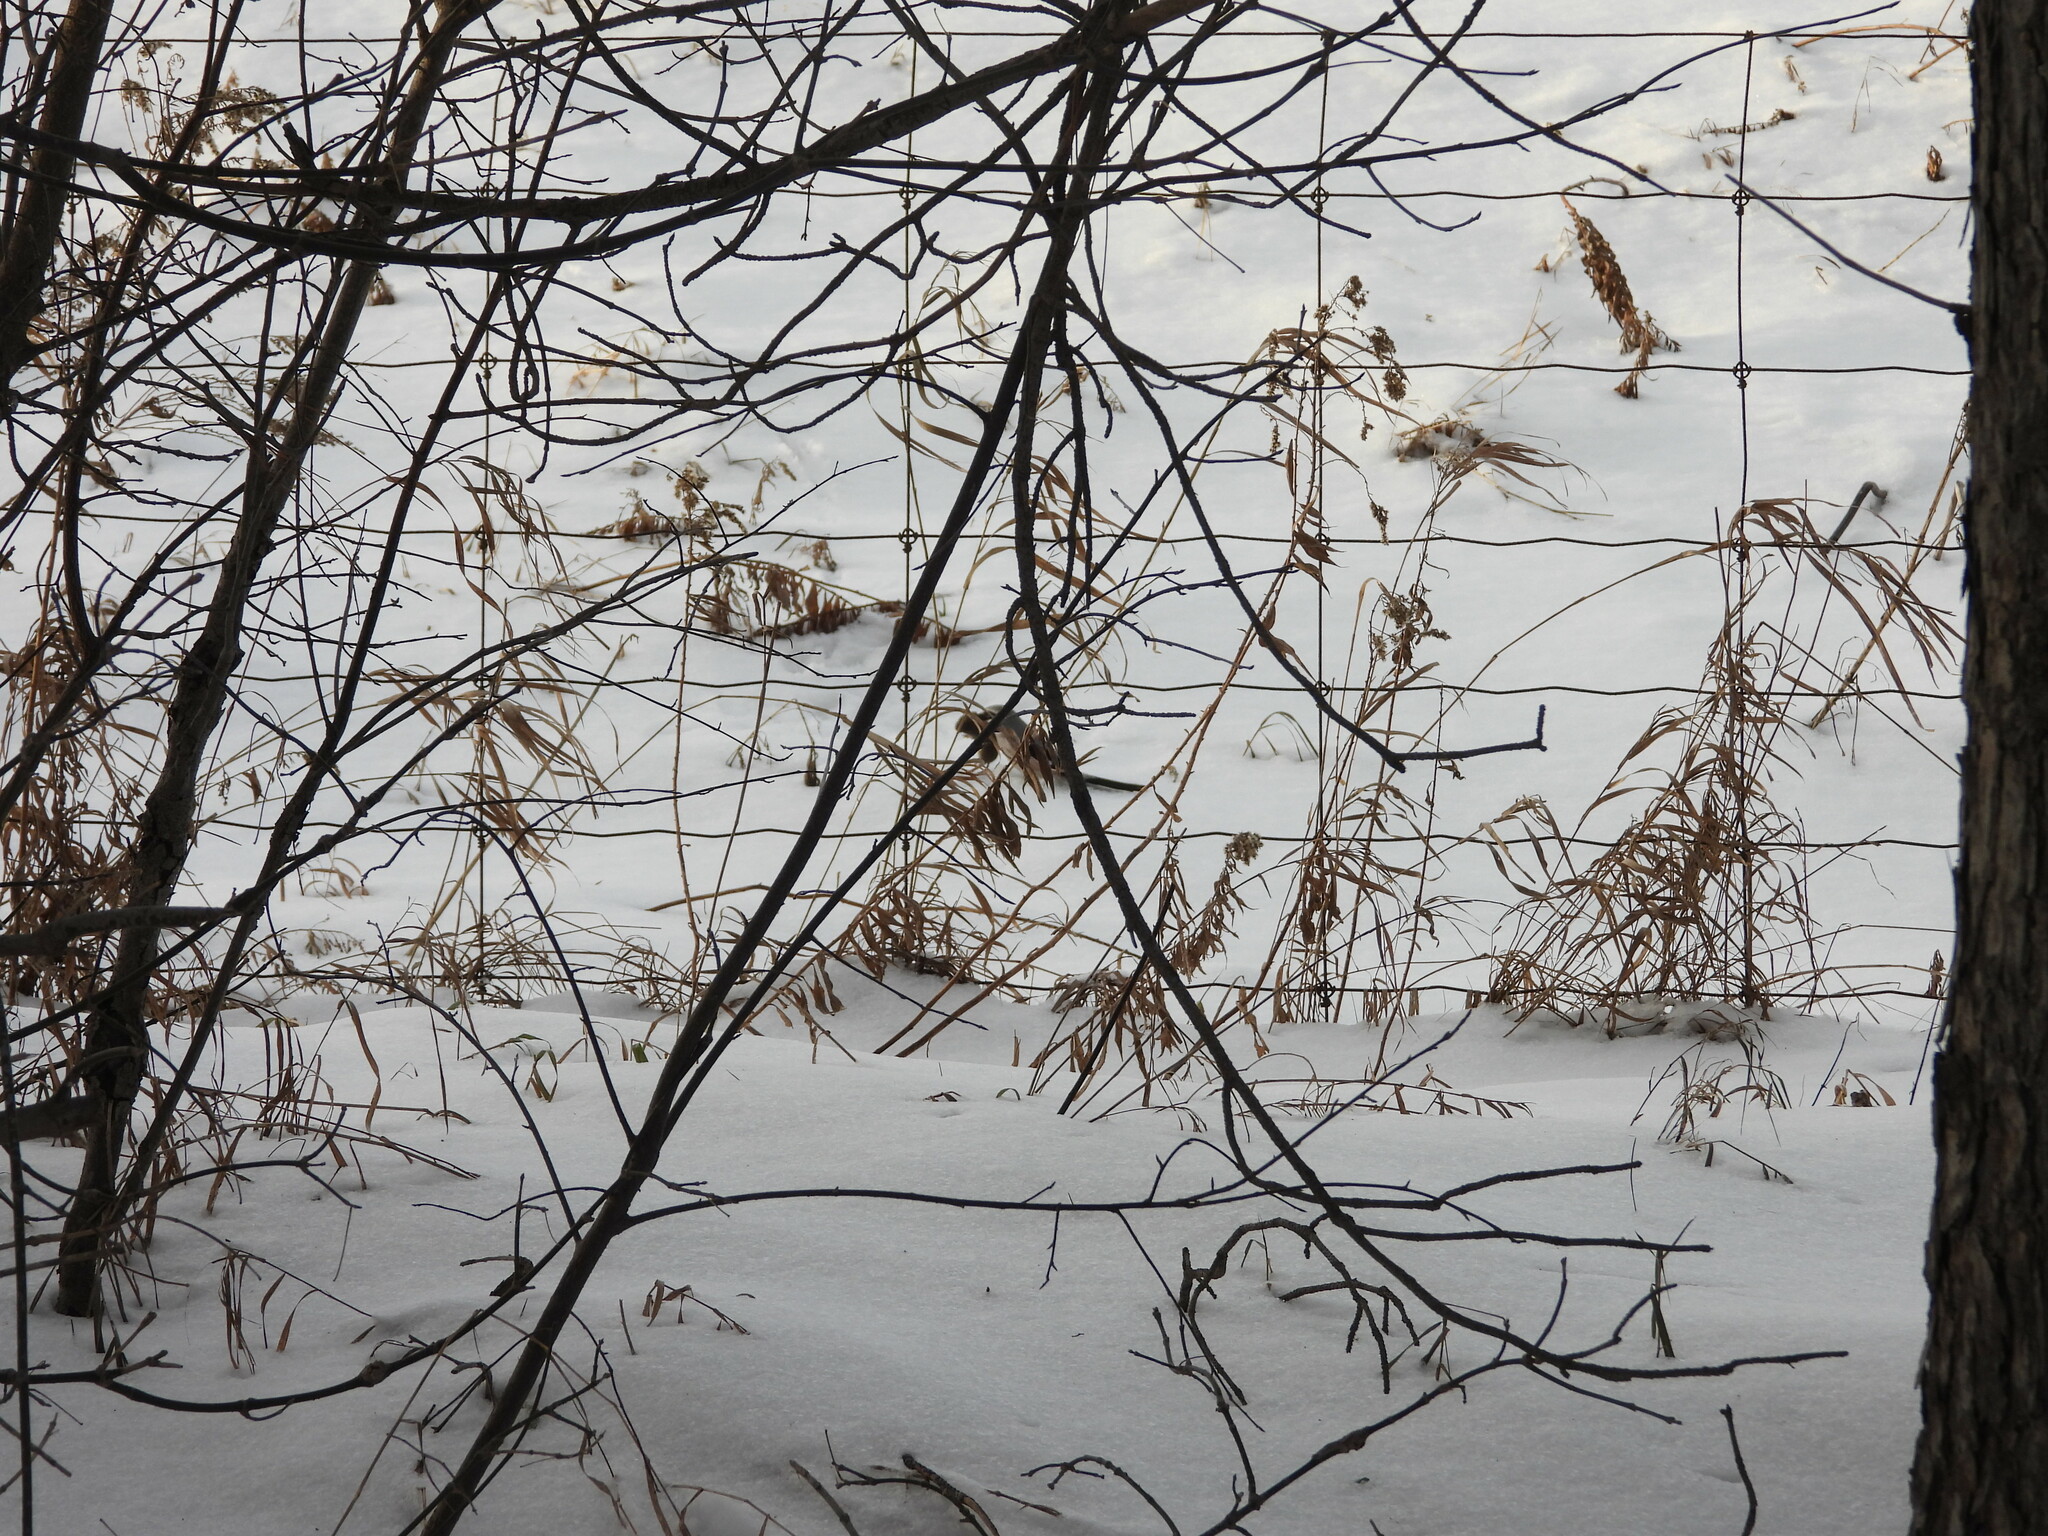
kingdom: Animalia
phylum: Chordata
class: Aves
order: Passeriformes
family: Laniidae
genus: Lanius
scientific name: Lanius borealis
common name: Northern shrike
